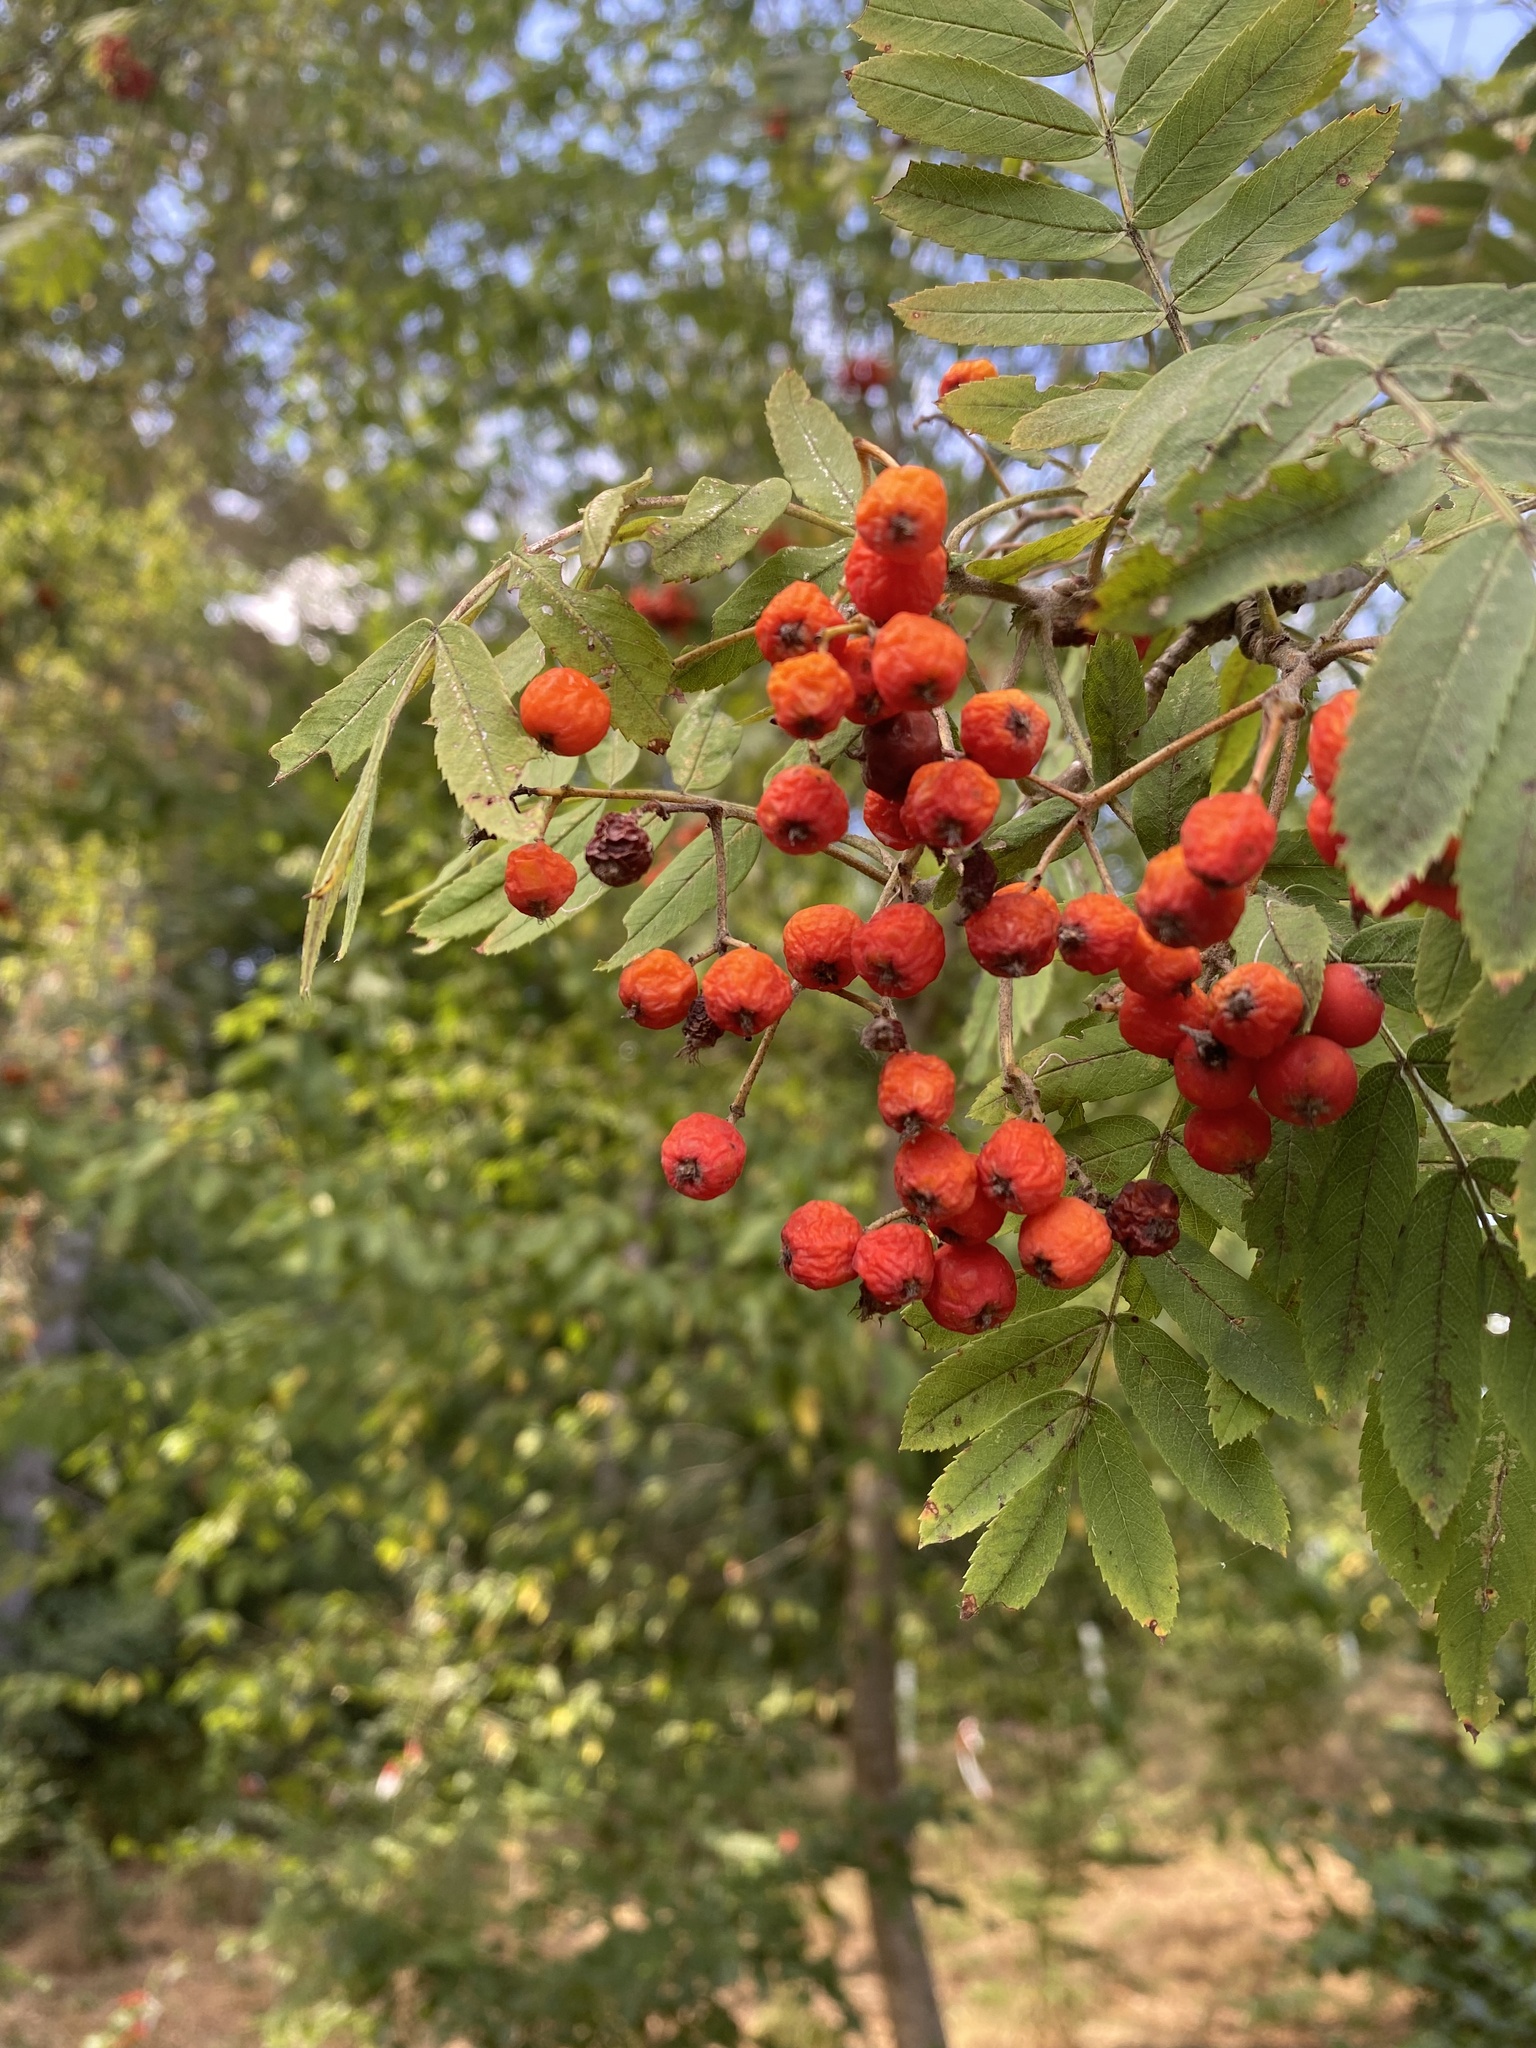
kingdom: Plantae
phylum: Tracheophyta
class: Magnoliopsida
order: Rosales
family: Rosaceae
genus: Sorbus
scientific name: Sorbus aucuparia
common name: Rowan
